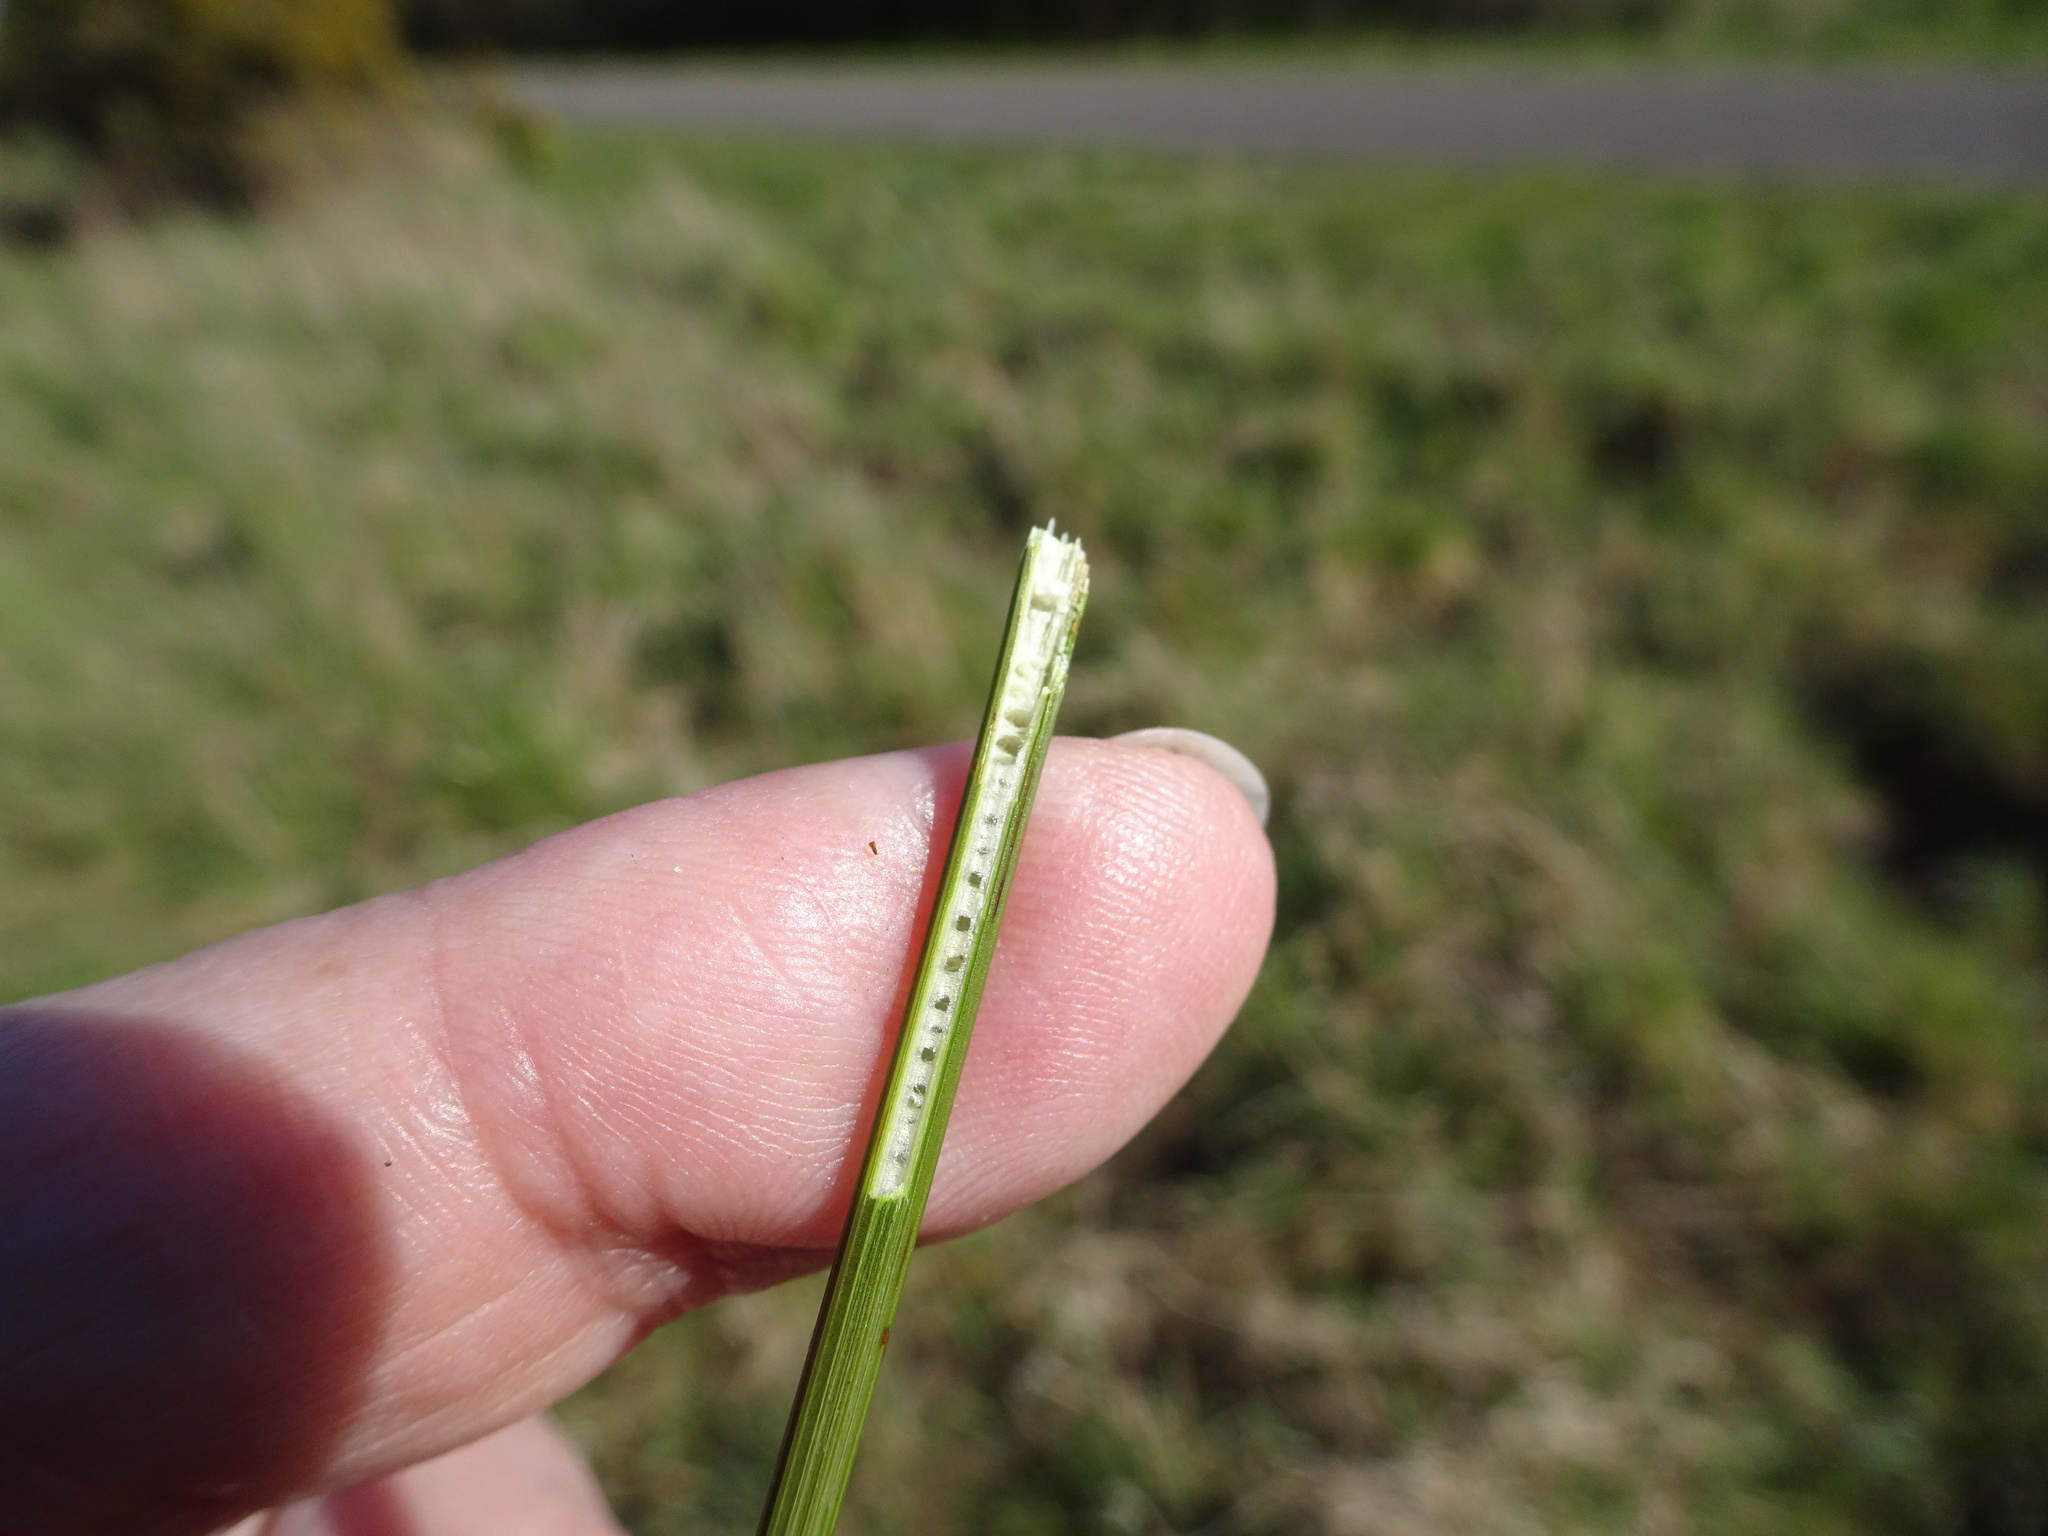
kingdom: Plantae
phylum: Tracheophyta
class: Liliopsida
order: Poales
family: Juncaceae
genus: Juncus
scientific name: Juncus inflexus
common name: Hard rush
